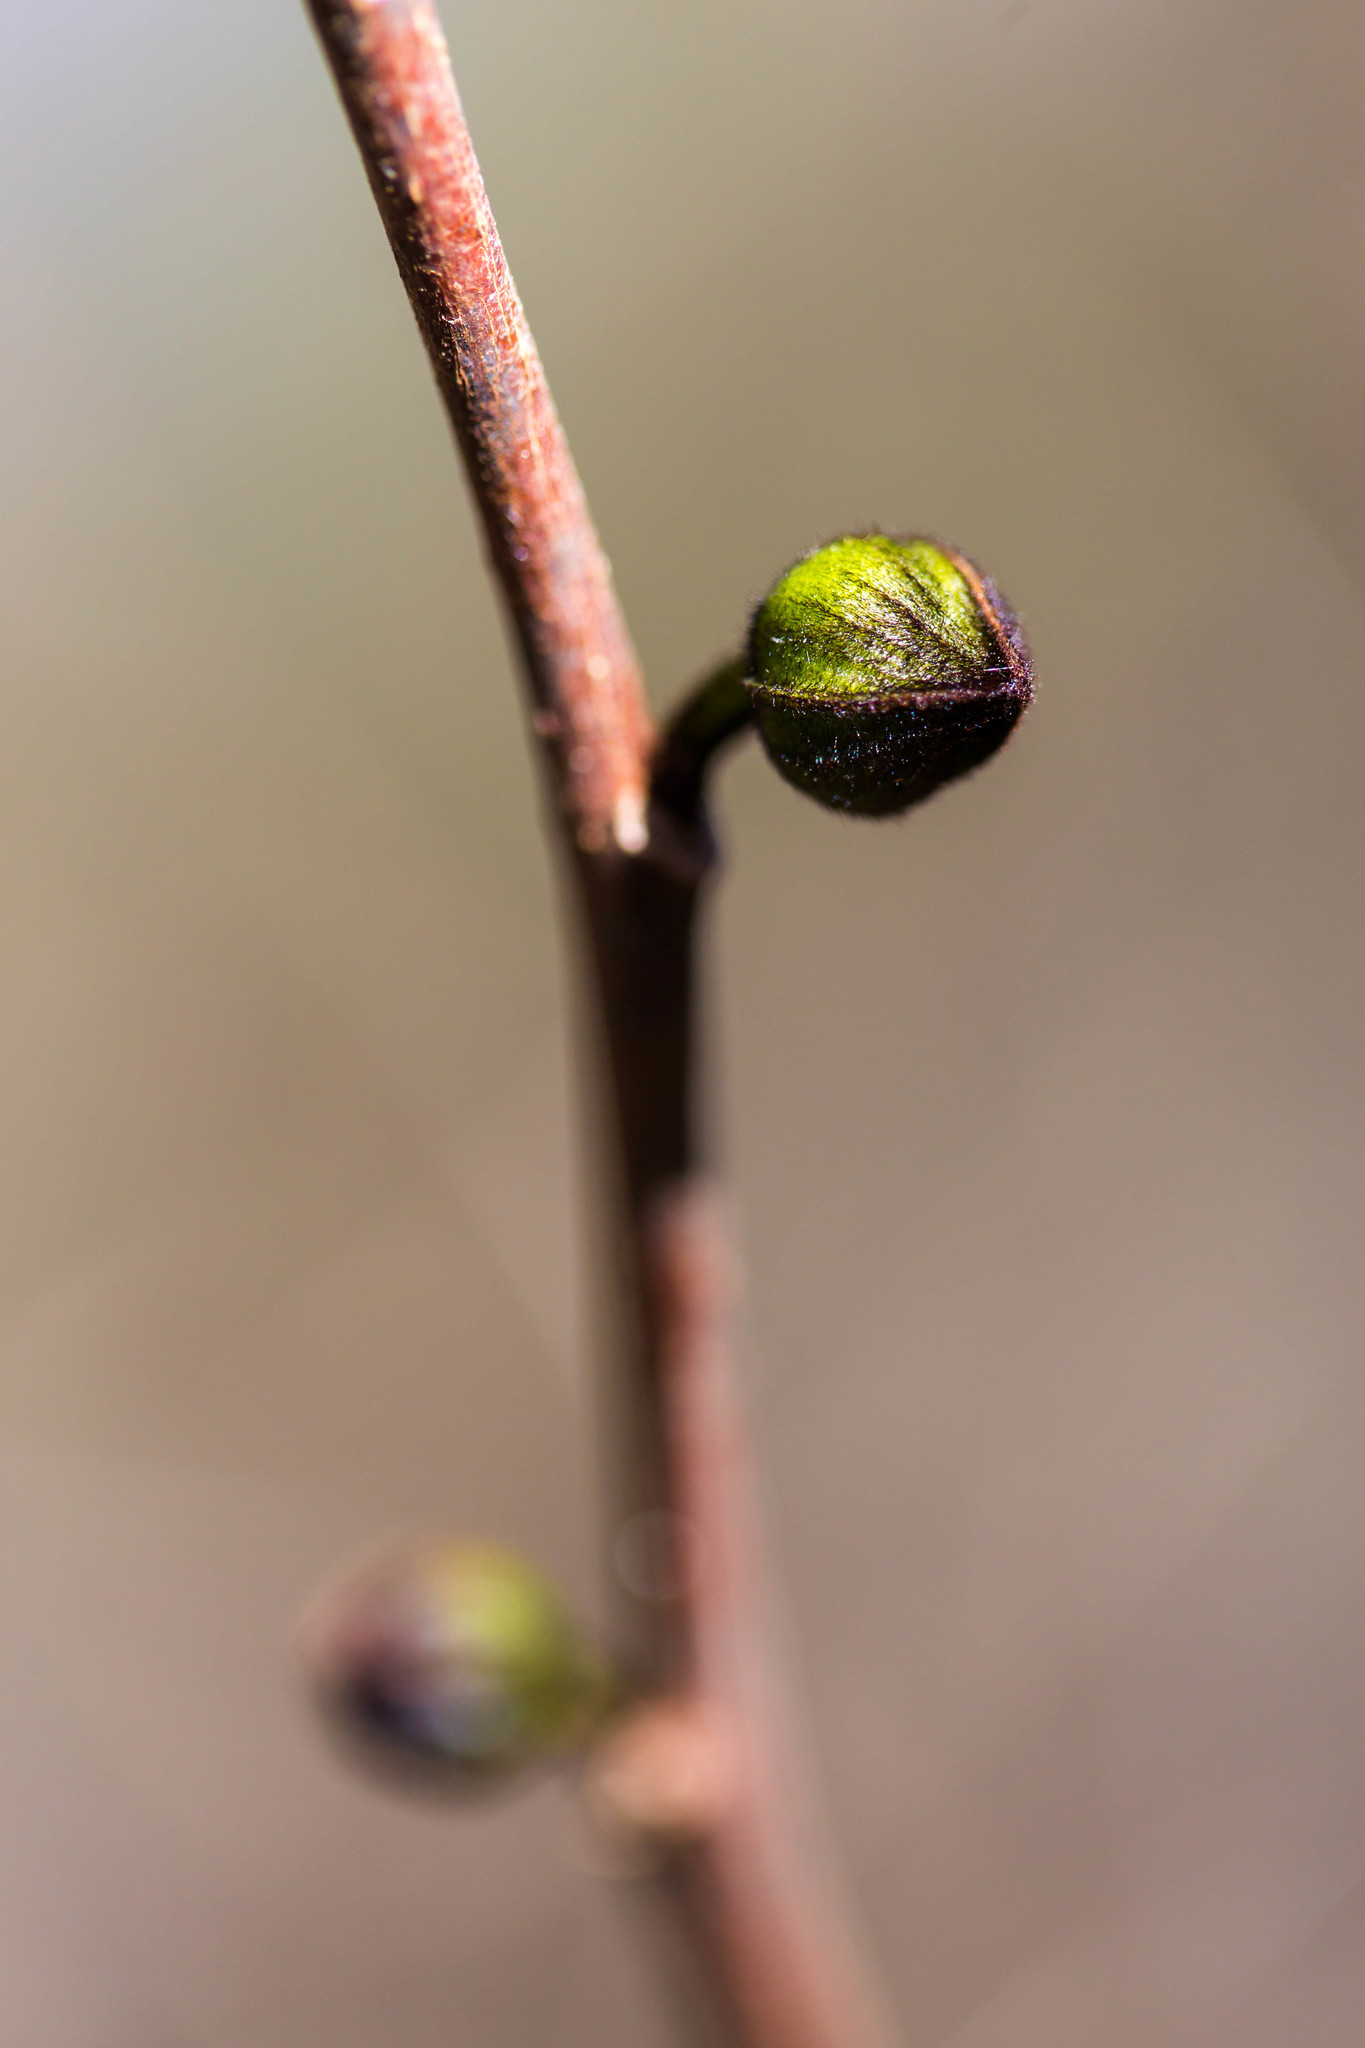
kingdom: Plantae
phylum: Tracheophyta
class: Magnoliopsida
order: Magnoliales
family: Annonaceae
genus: Asimina
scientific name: Asimina triloba
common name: Dog-banana
